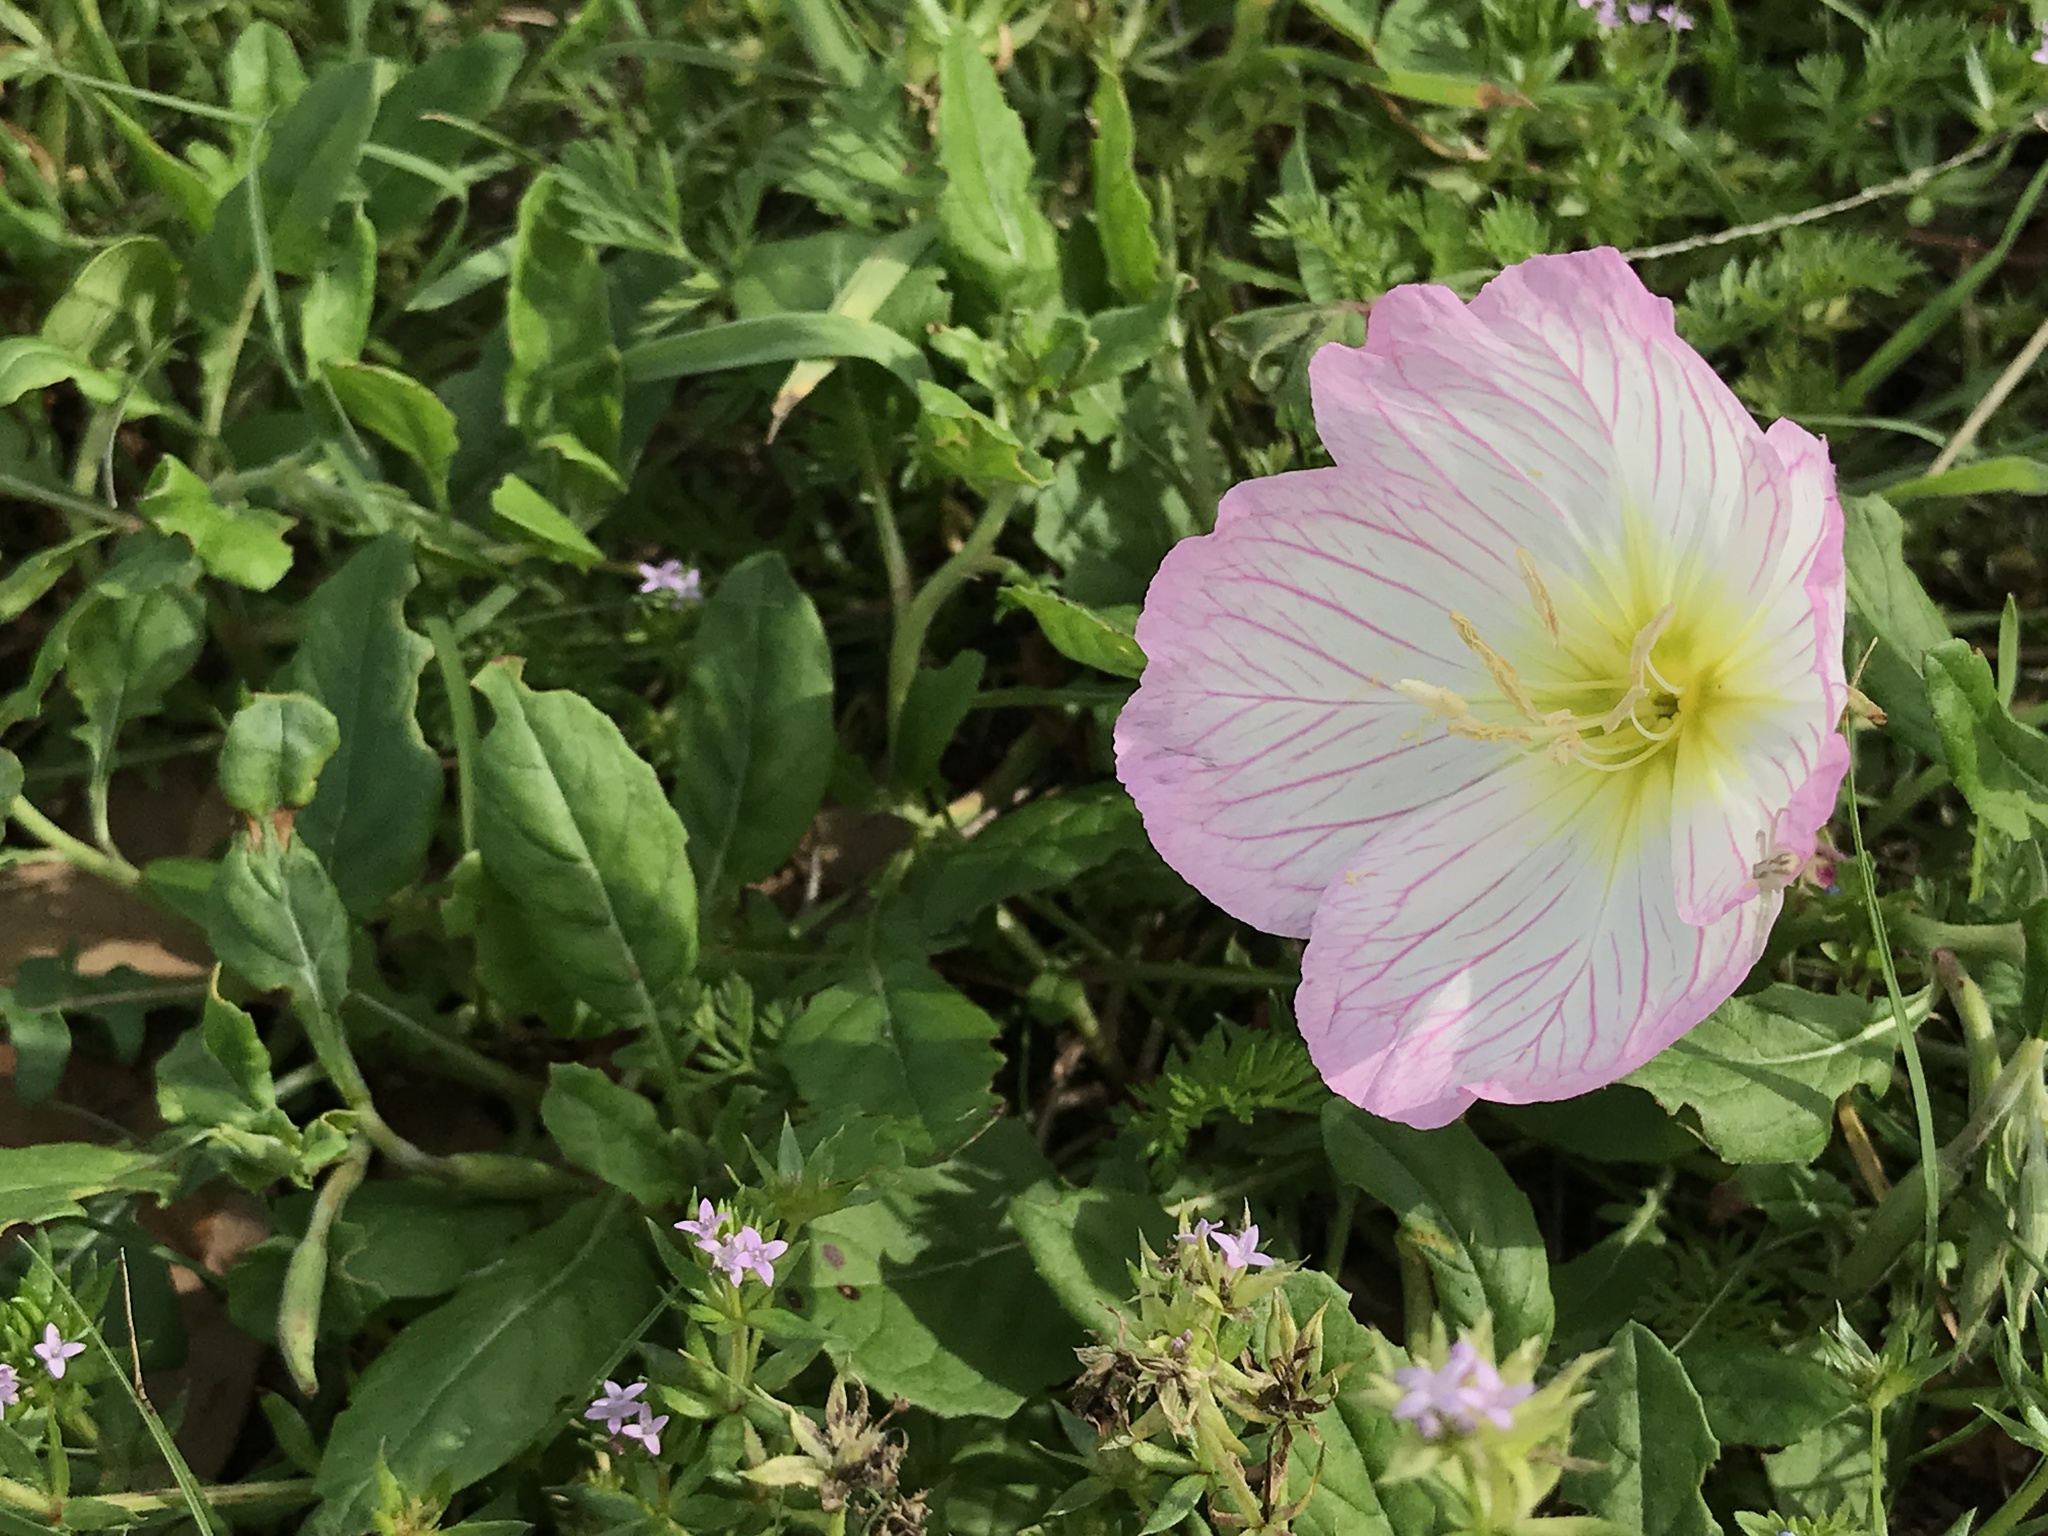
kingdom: Plantae
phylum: Tracheophyta
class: Magnoliopsida
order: Myrtales
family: Onagraceae
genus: Oenothera
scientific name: Oenothera speciosa
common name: White evening-primrose
